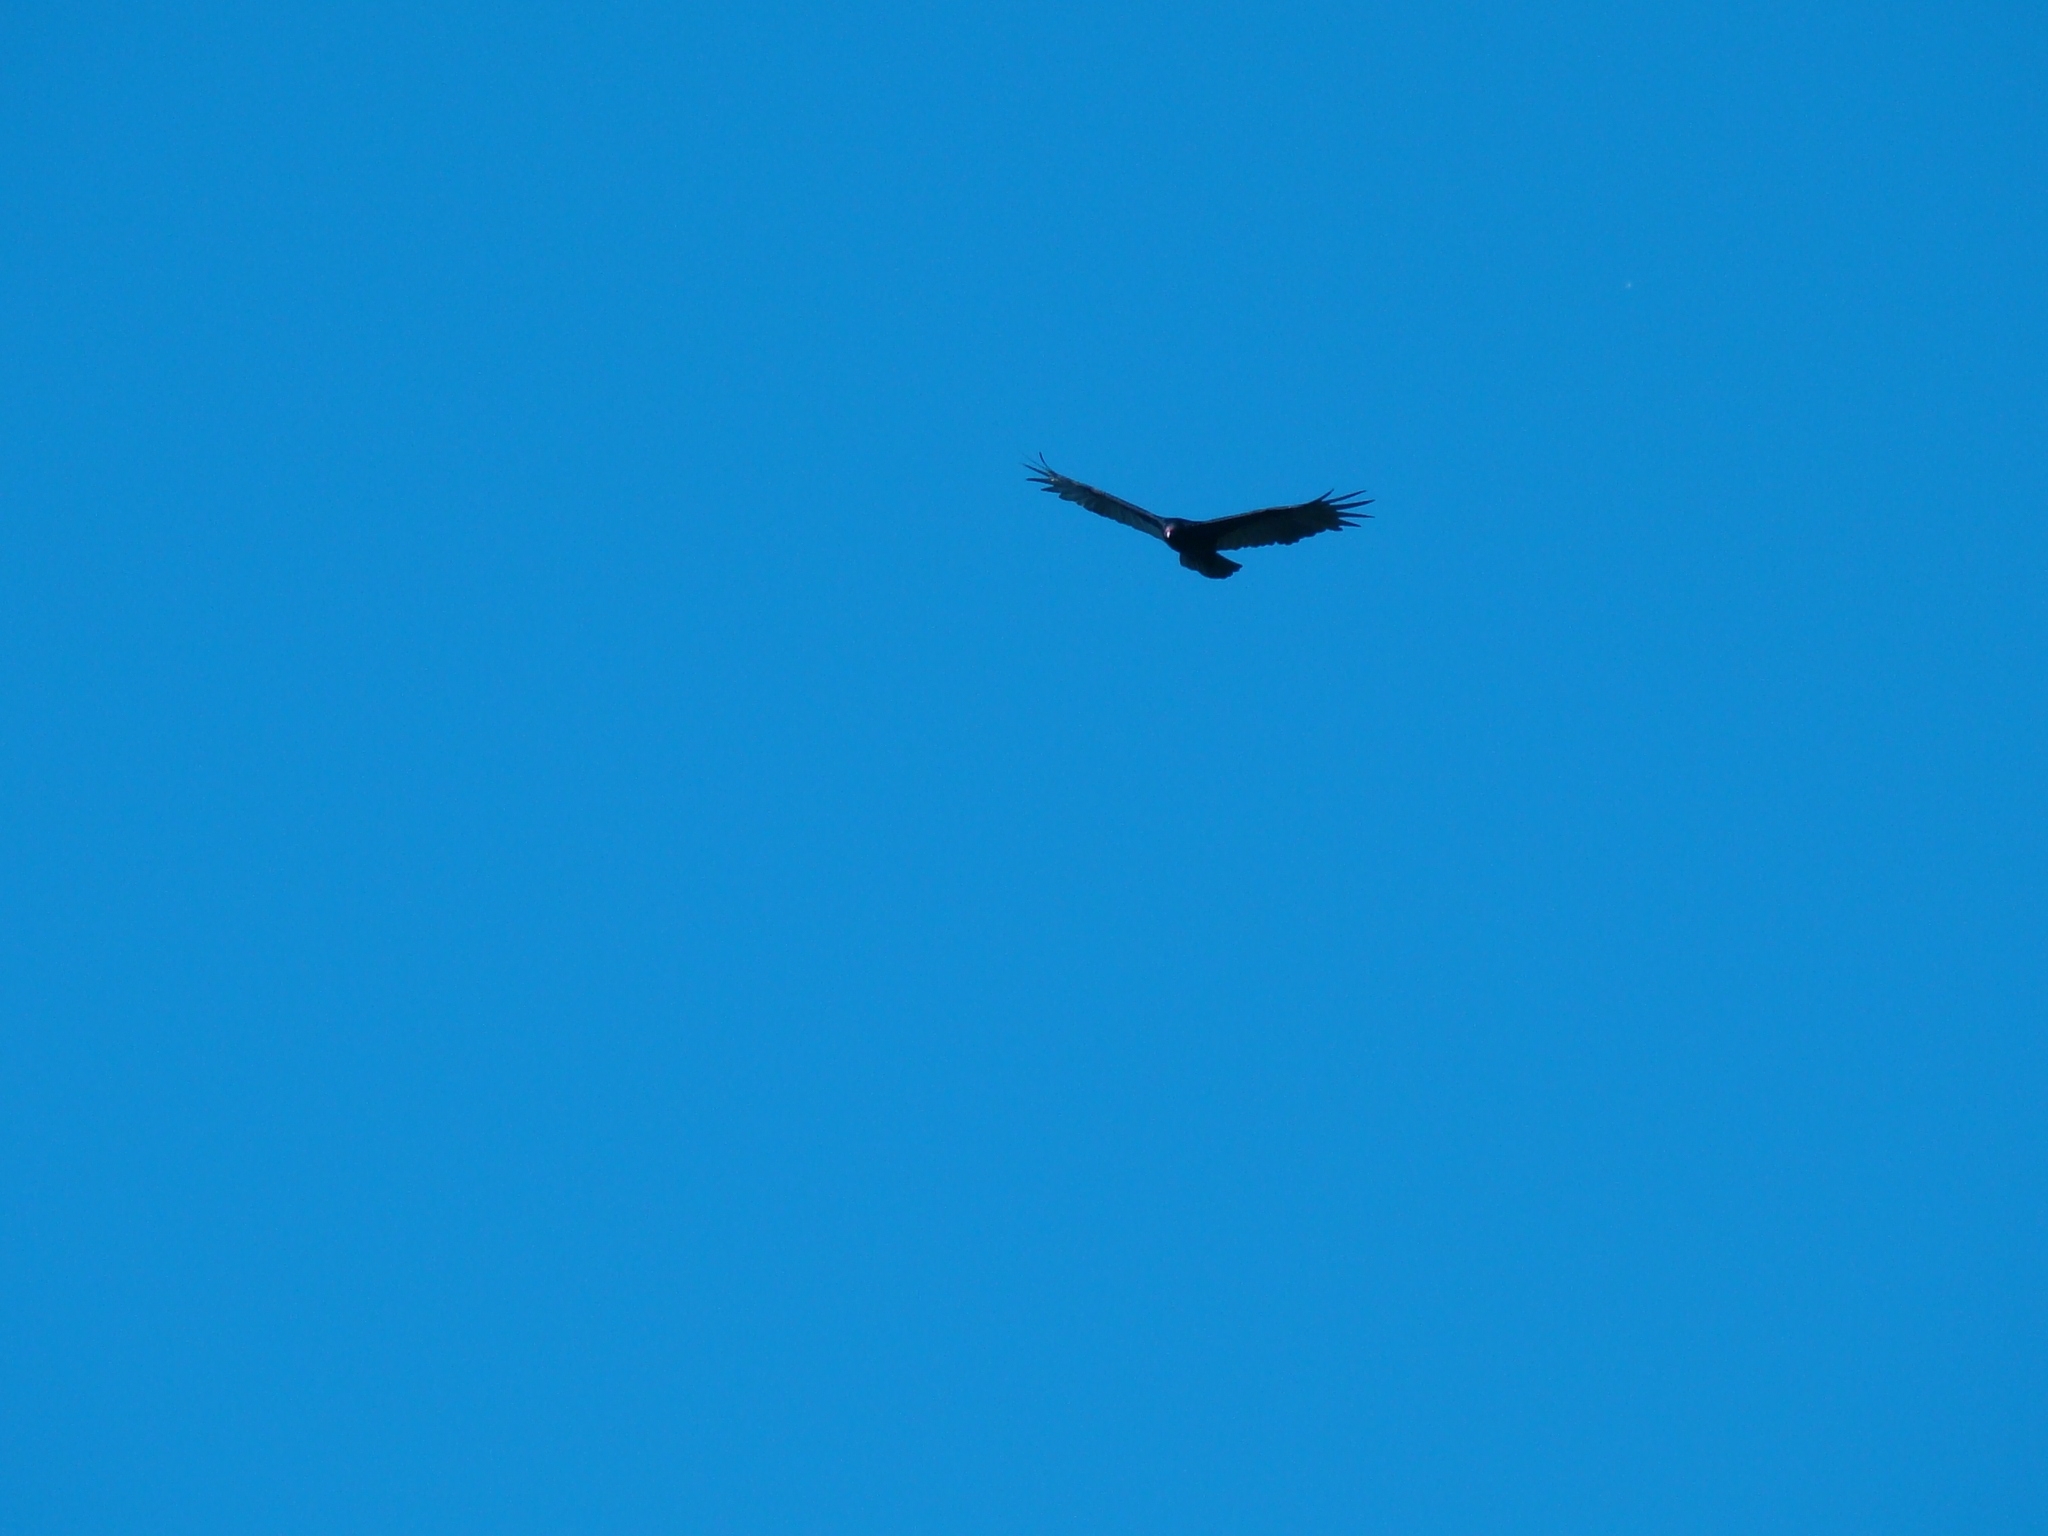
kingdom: Animalia
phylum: Chordata
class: Aves
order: Accipitriformes
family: Cathartidae
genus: Cathartes
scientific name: Cathartes aura
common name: Turkey vulture
